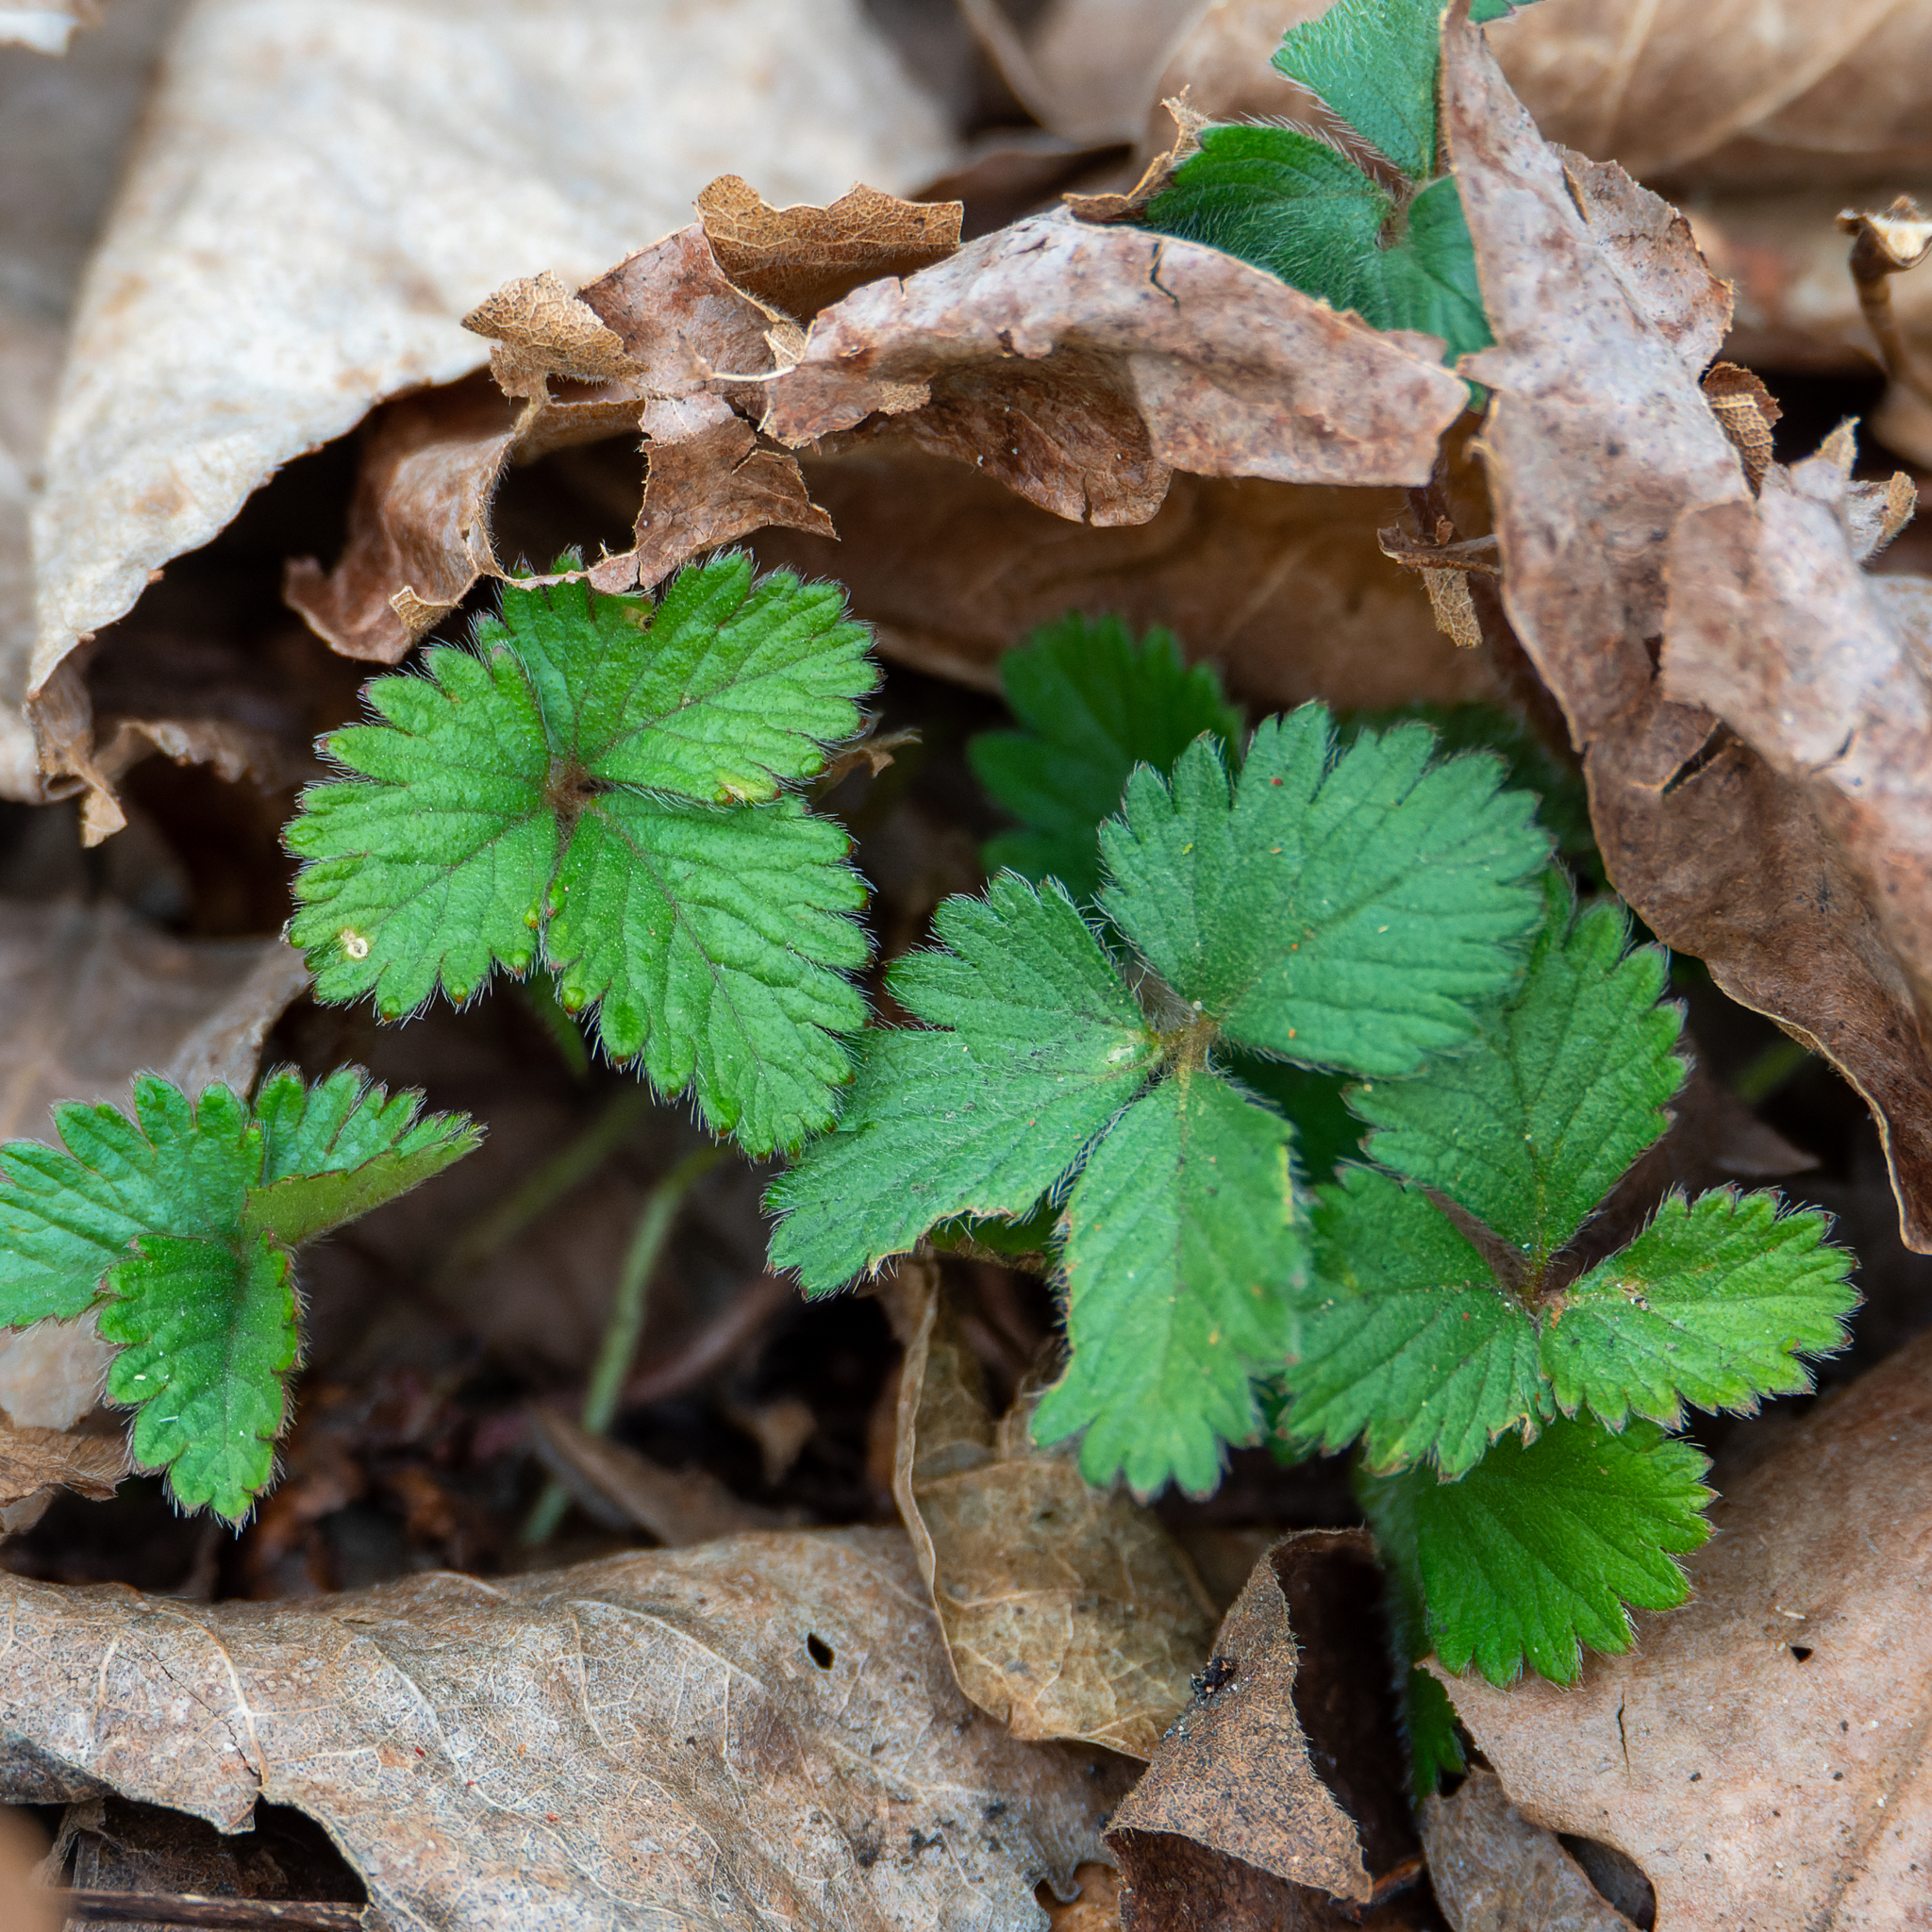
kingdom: Plantae
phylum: Tracheophyta
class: Magnoliopsida
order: Rosales
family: Rosaceae
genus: Potentilla
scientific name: Potentilla indica
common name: Yellow-flowered strawberry
